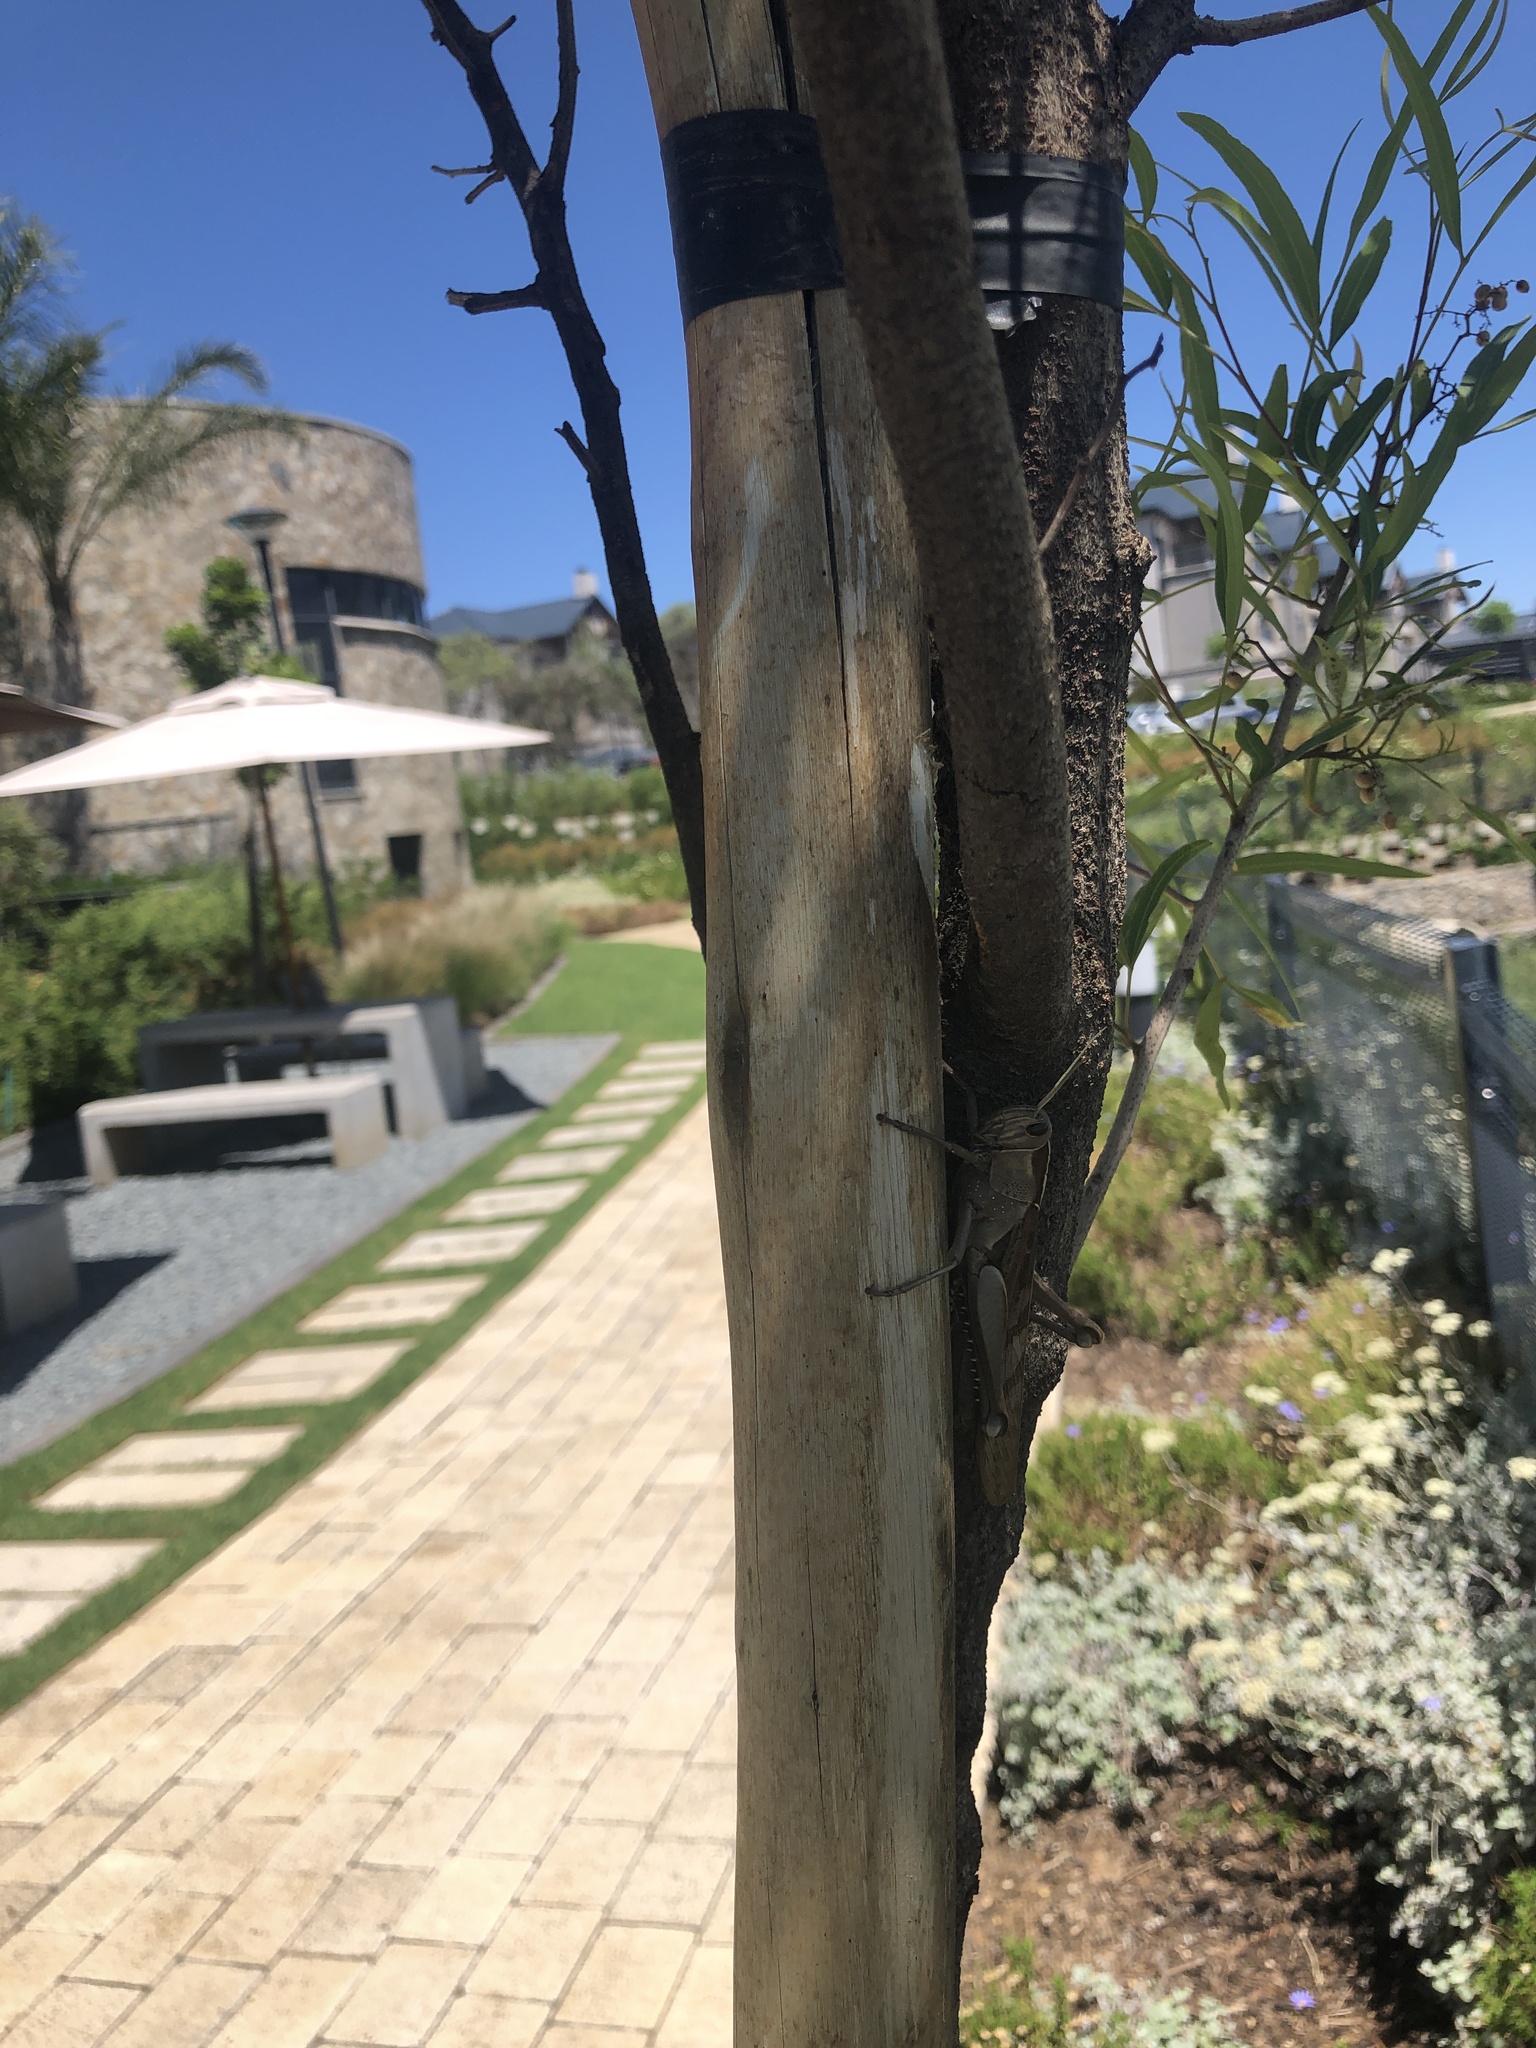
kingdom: Animalia
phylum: Arthropoda
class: Insecta
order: Orthoptera
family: Acrididae
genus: Acanthacris
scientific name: Acanthacris ruficornis
